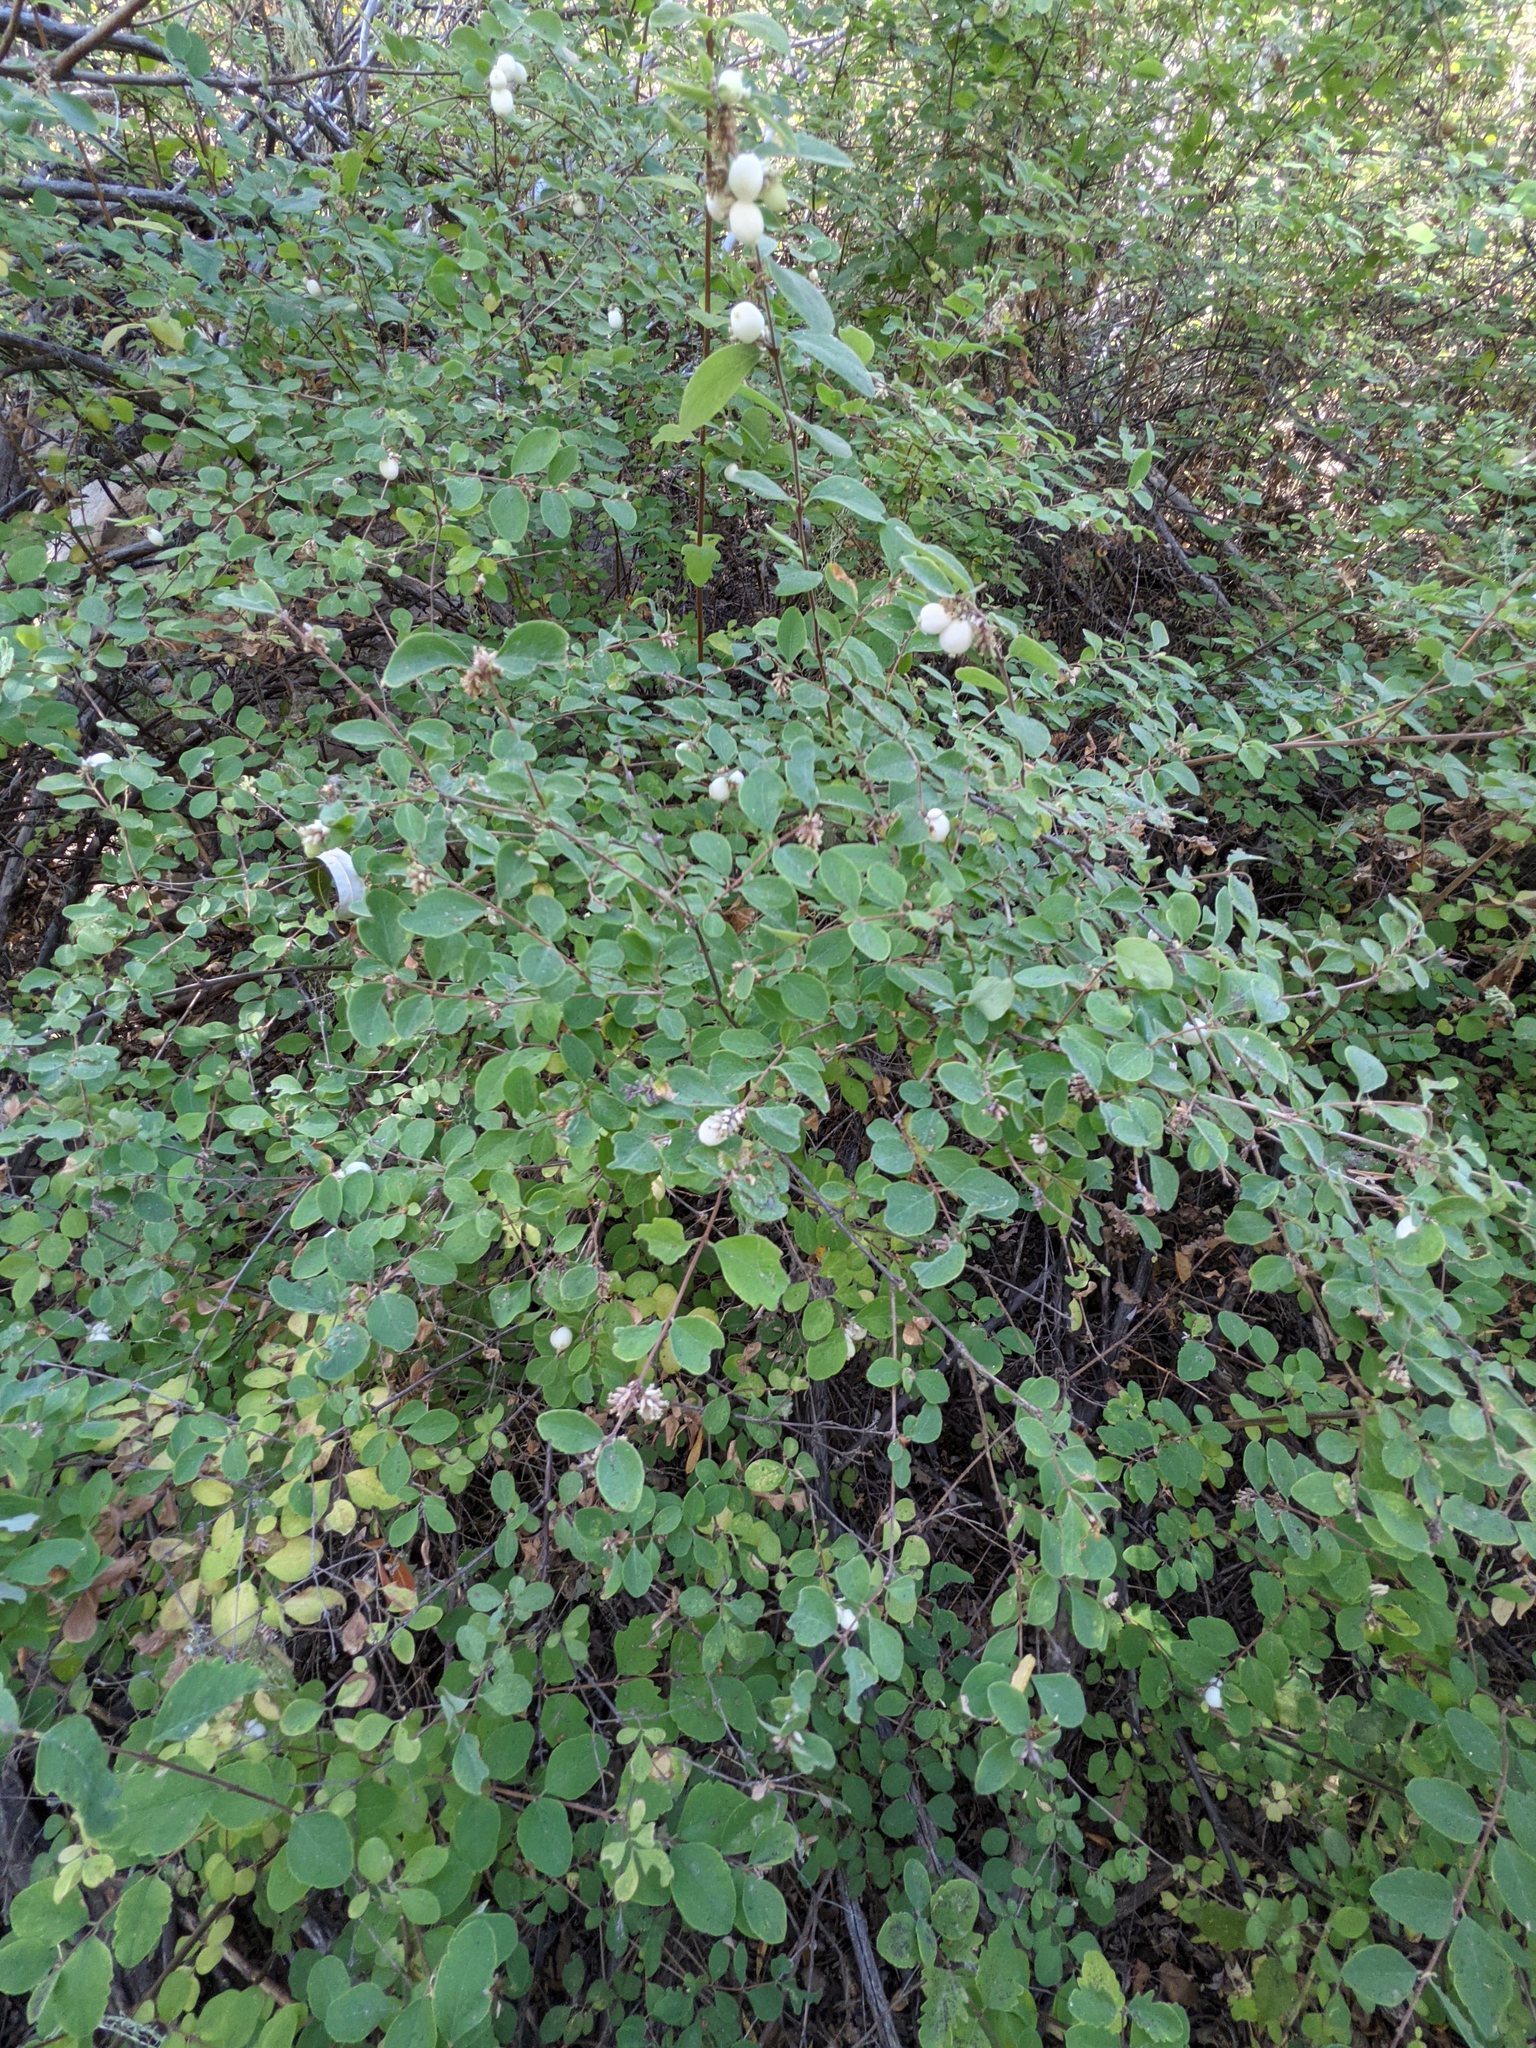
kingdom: Plantae
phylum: Tracheophyta
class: Magnoliopsida
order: Dipsacales
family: Caprifoliaceae
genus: Symphoricarpos
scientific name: Symphoricarpos albus
